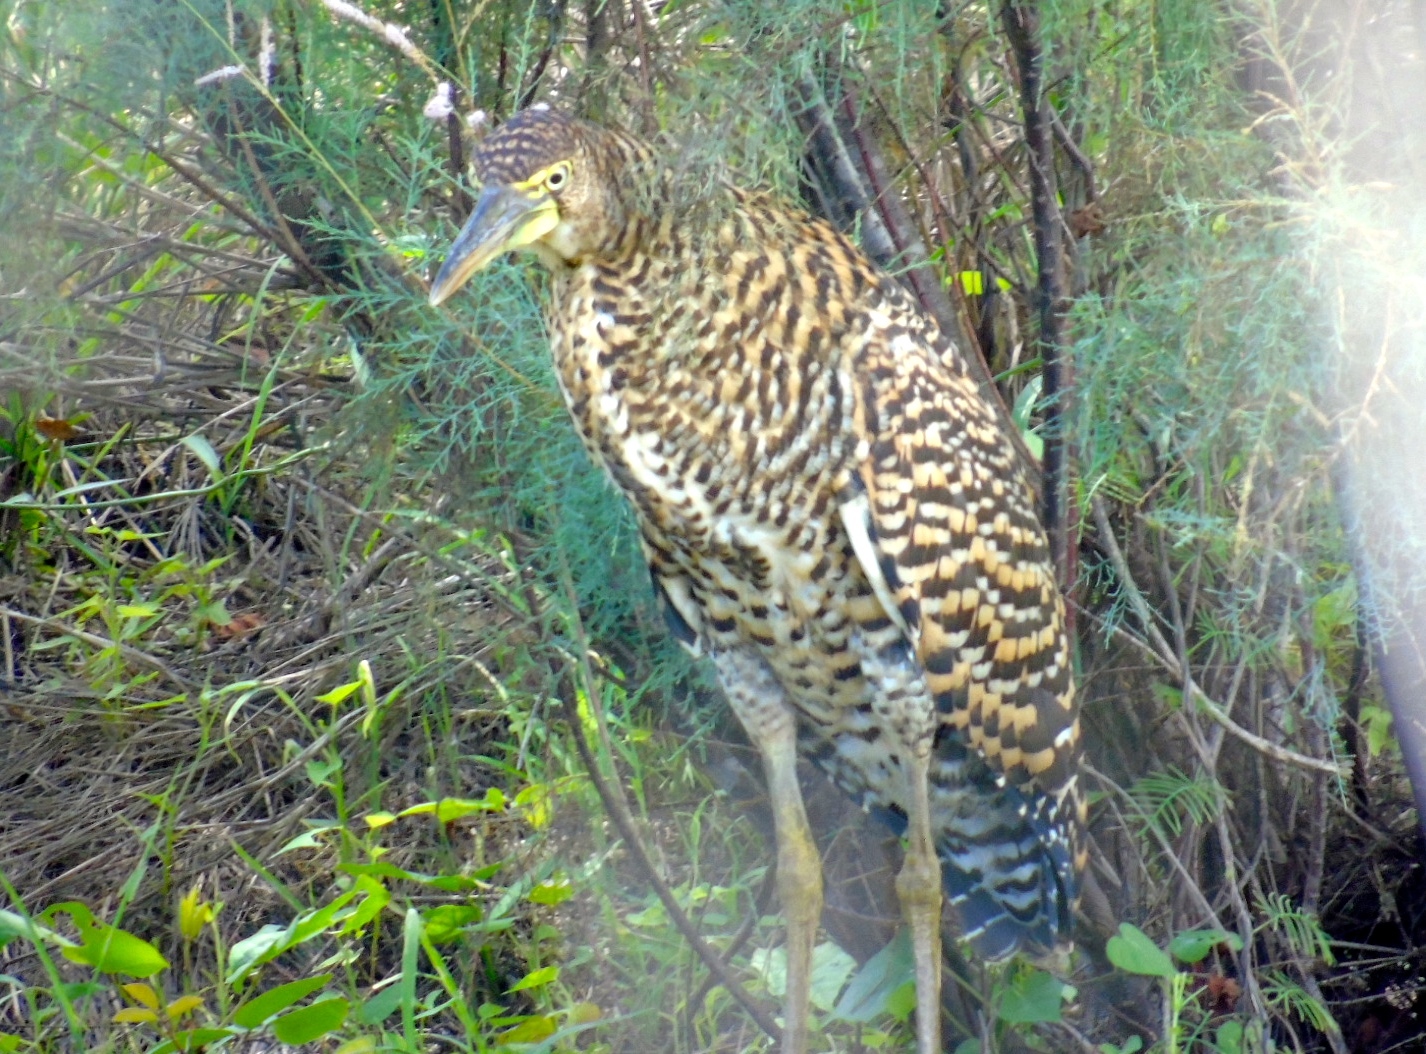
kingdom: Animalia
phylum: Chordata
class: Aves
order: Pelecaniformes
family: Ardeidae
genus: Tigrisoma
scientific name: Tigrisoma mexicanum
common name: Bare-throated tiger-heron
